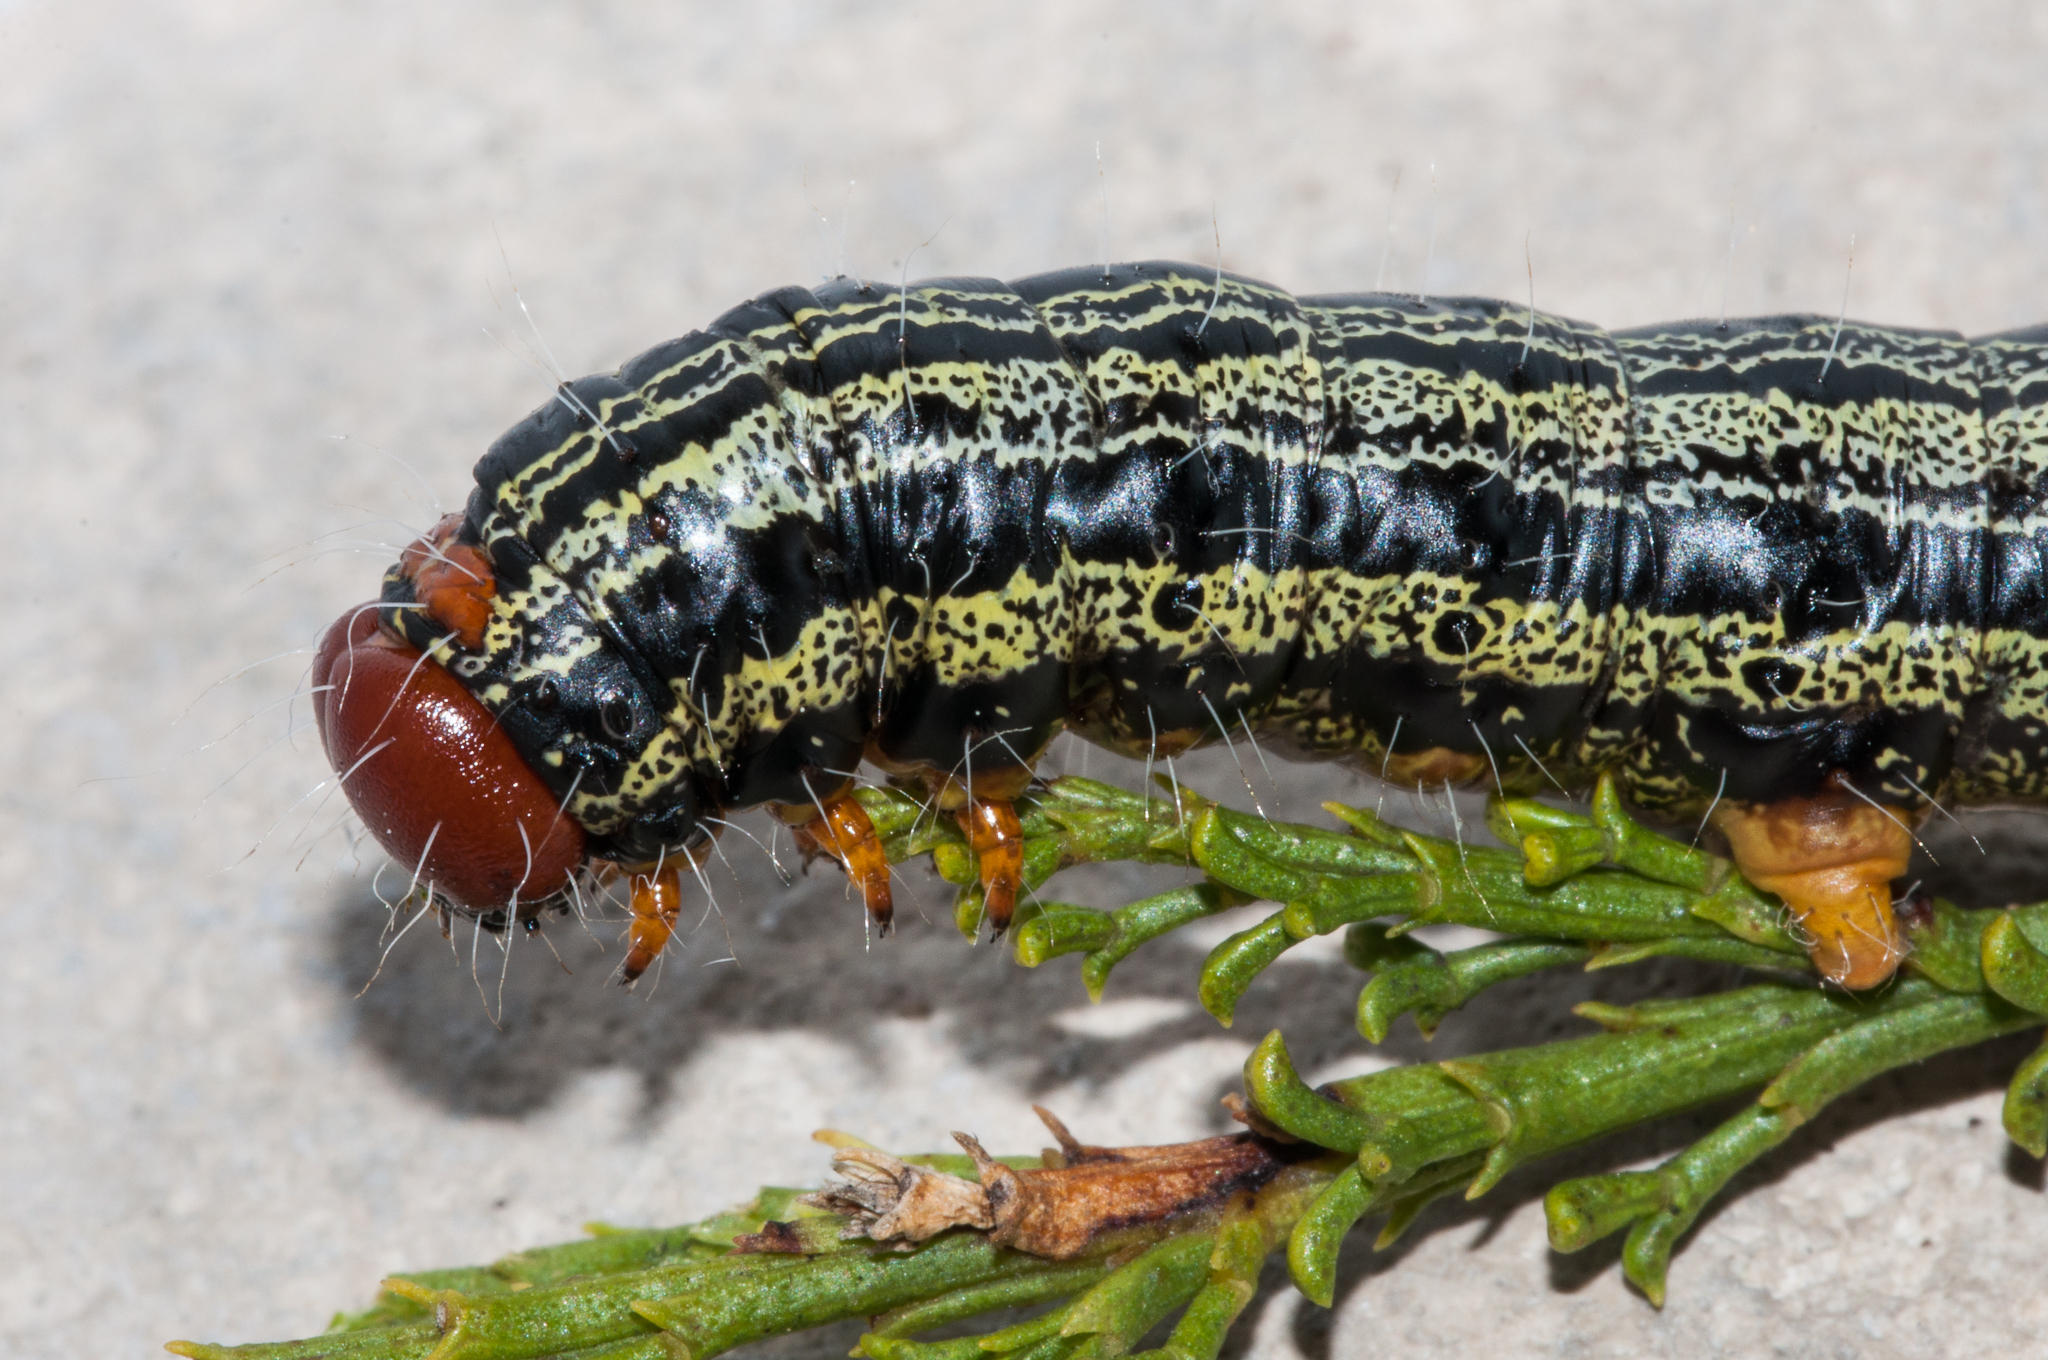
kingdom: Plantae
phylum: Tracheophyta
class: Magnoliopsida
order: Fabales
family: Fabaceae
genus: Psoralea
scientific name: Psoralea aculeata
